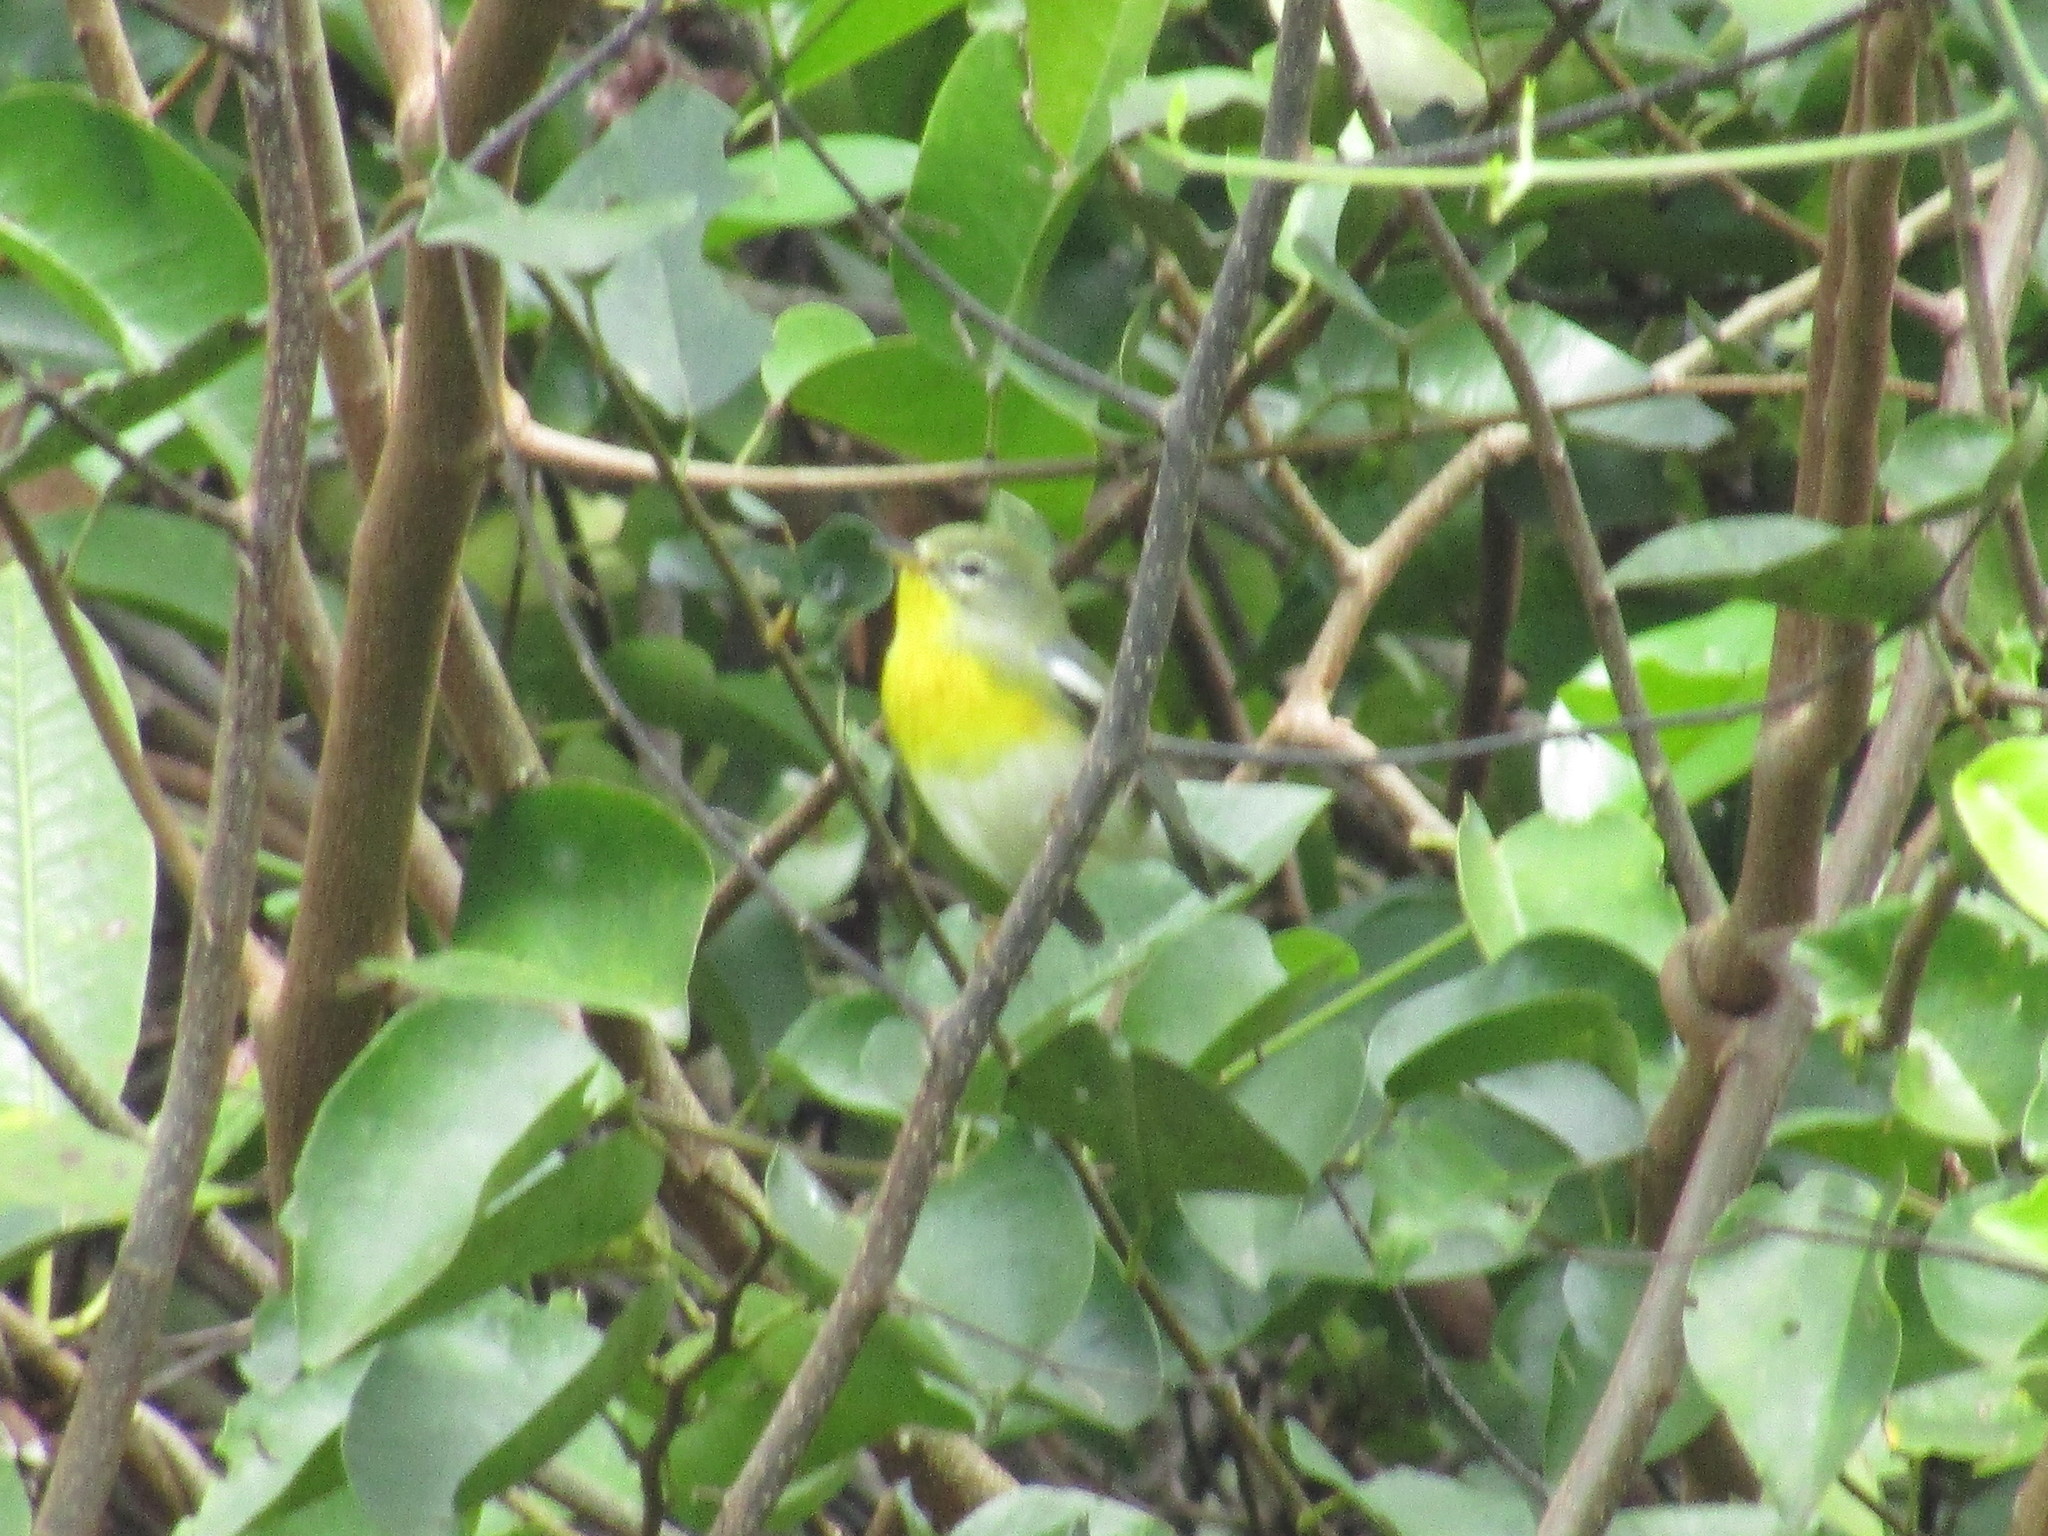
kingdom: Animalia
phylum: Chordata
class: Aves
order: Passeriformes
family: Parulidae
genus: Setophaga
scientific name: Setophaga americana
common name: Northern parula
